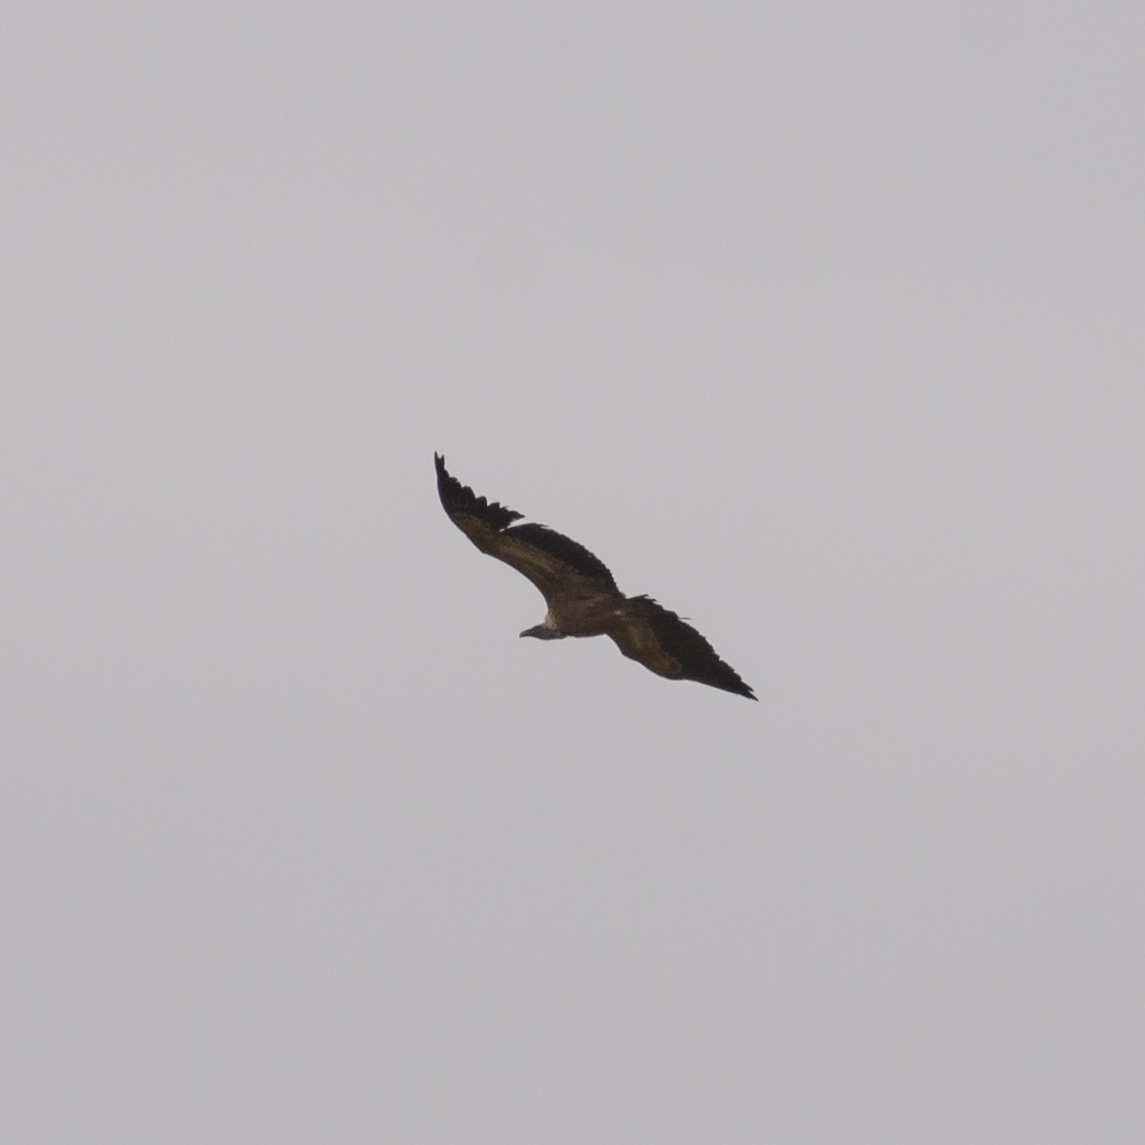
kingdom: Animalia
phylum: Chordata
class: Aves
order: Accipitriformes
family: Accipitridae
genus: Gyps
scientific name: Gyps fulvus
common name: Griffon vulture
